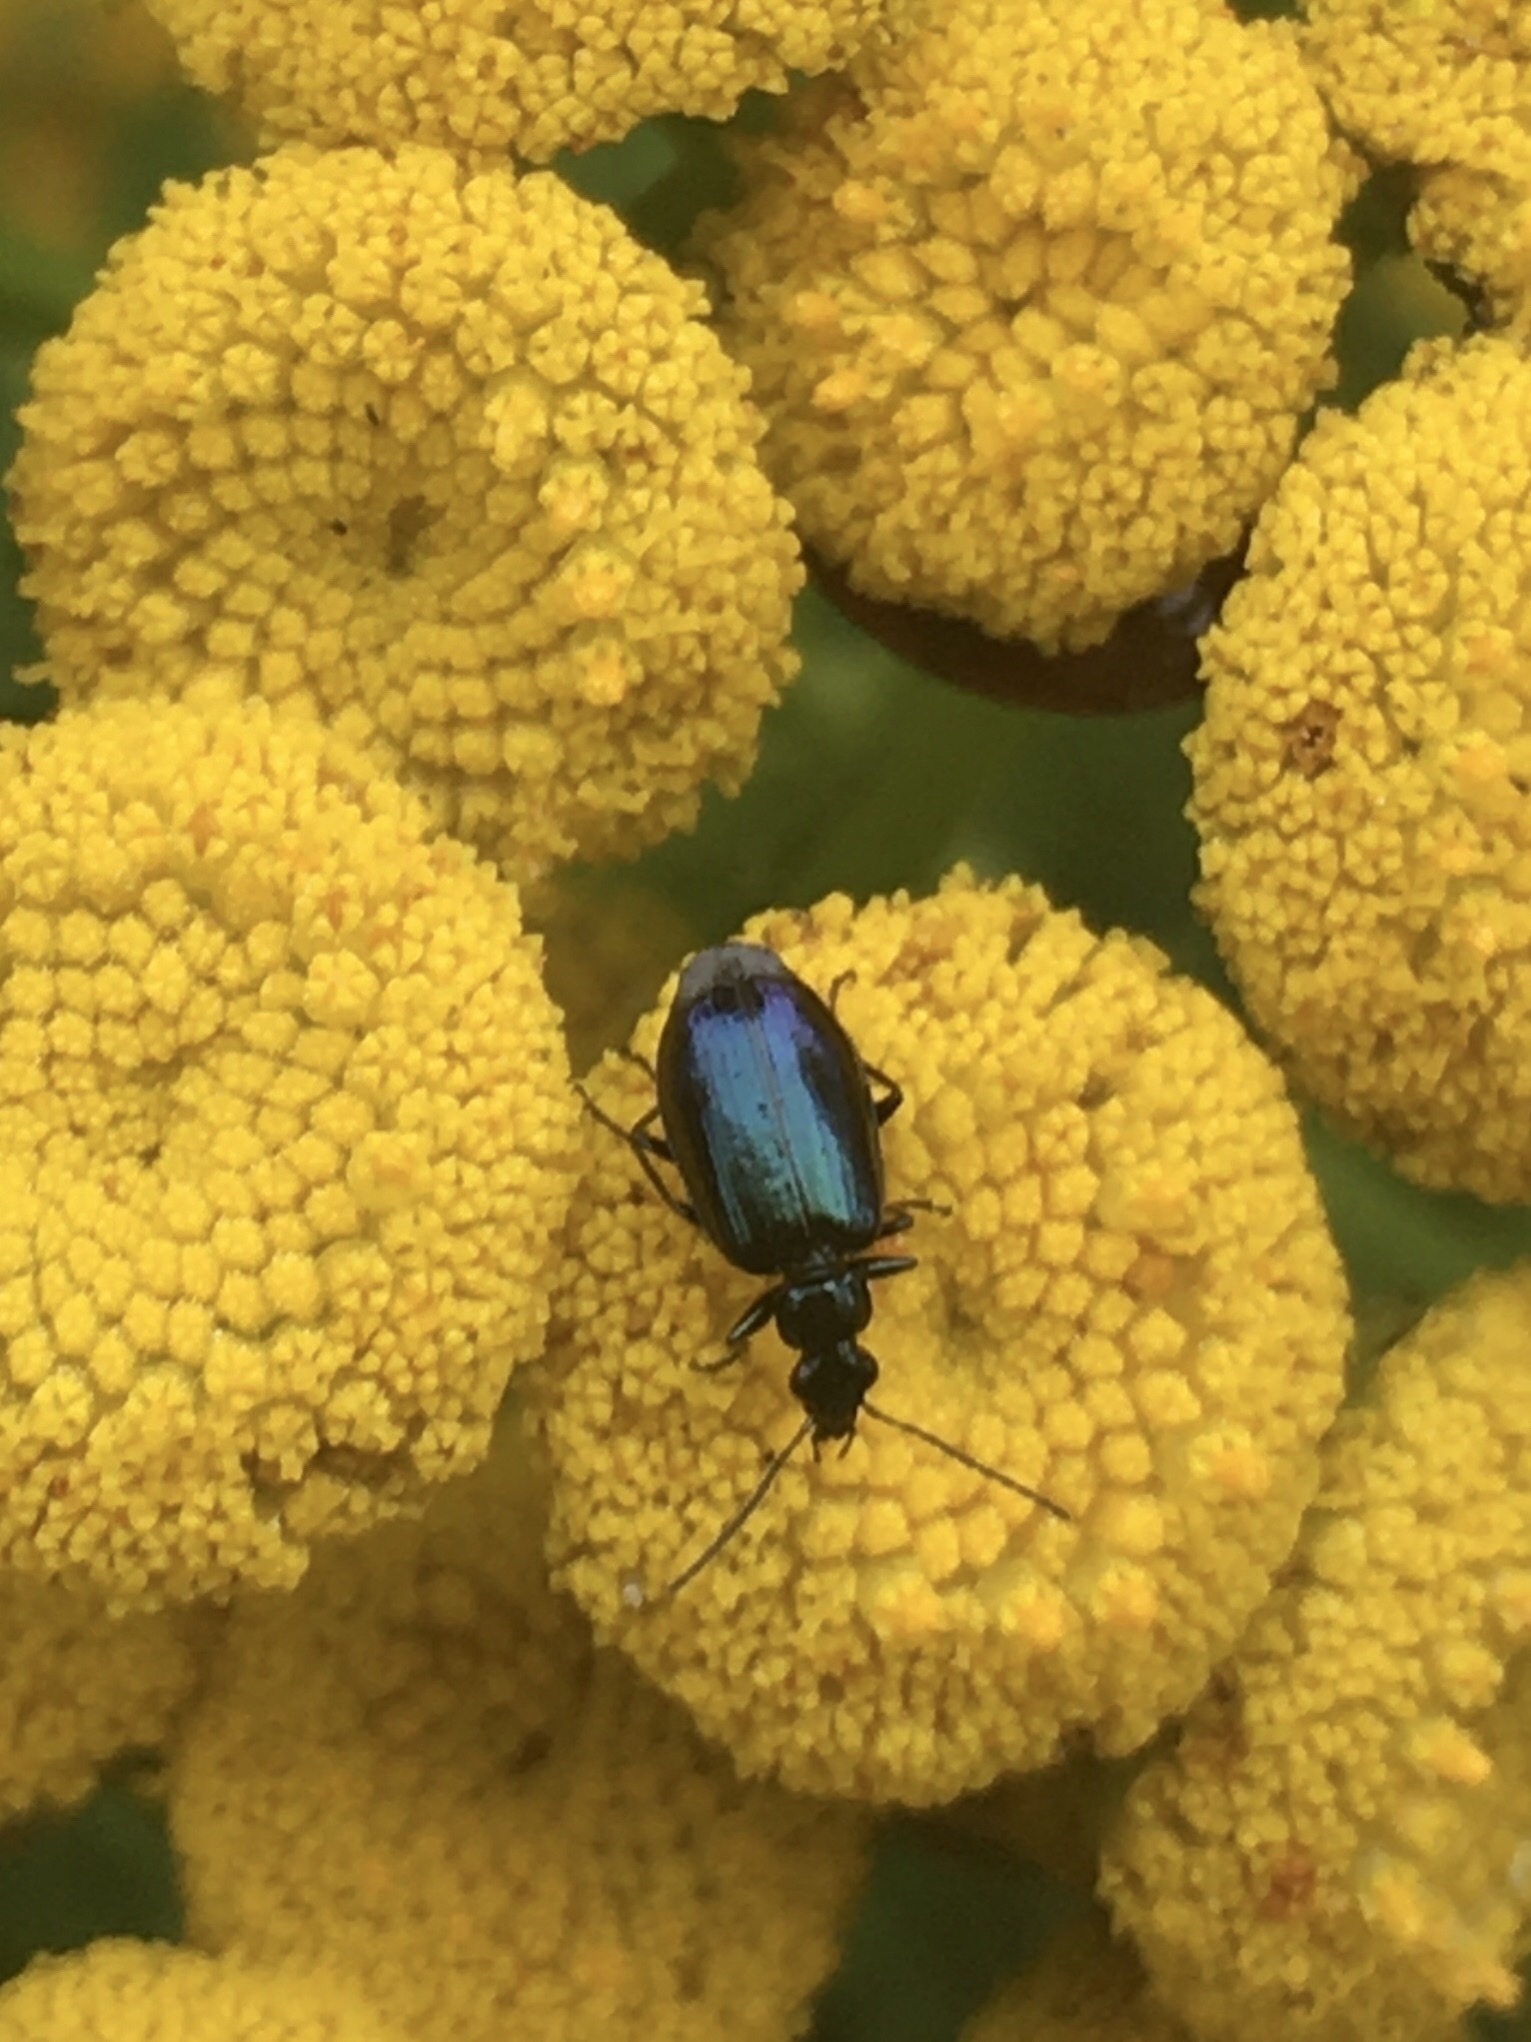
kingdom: Animalia
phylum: Arthropoda
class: Insecta
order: Coleoptera
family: Carabidae
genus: Lebia
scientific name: Lebia viridis
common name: Flower lebia beetle
